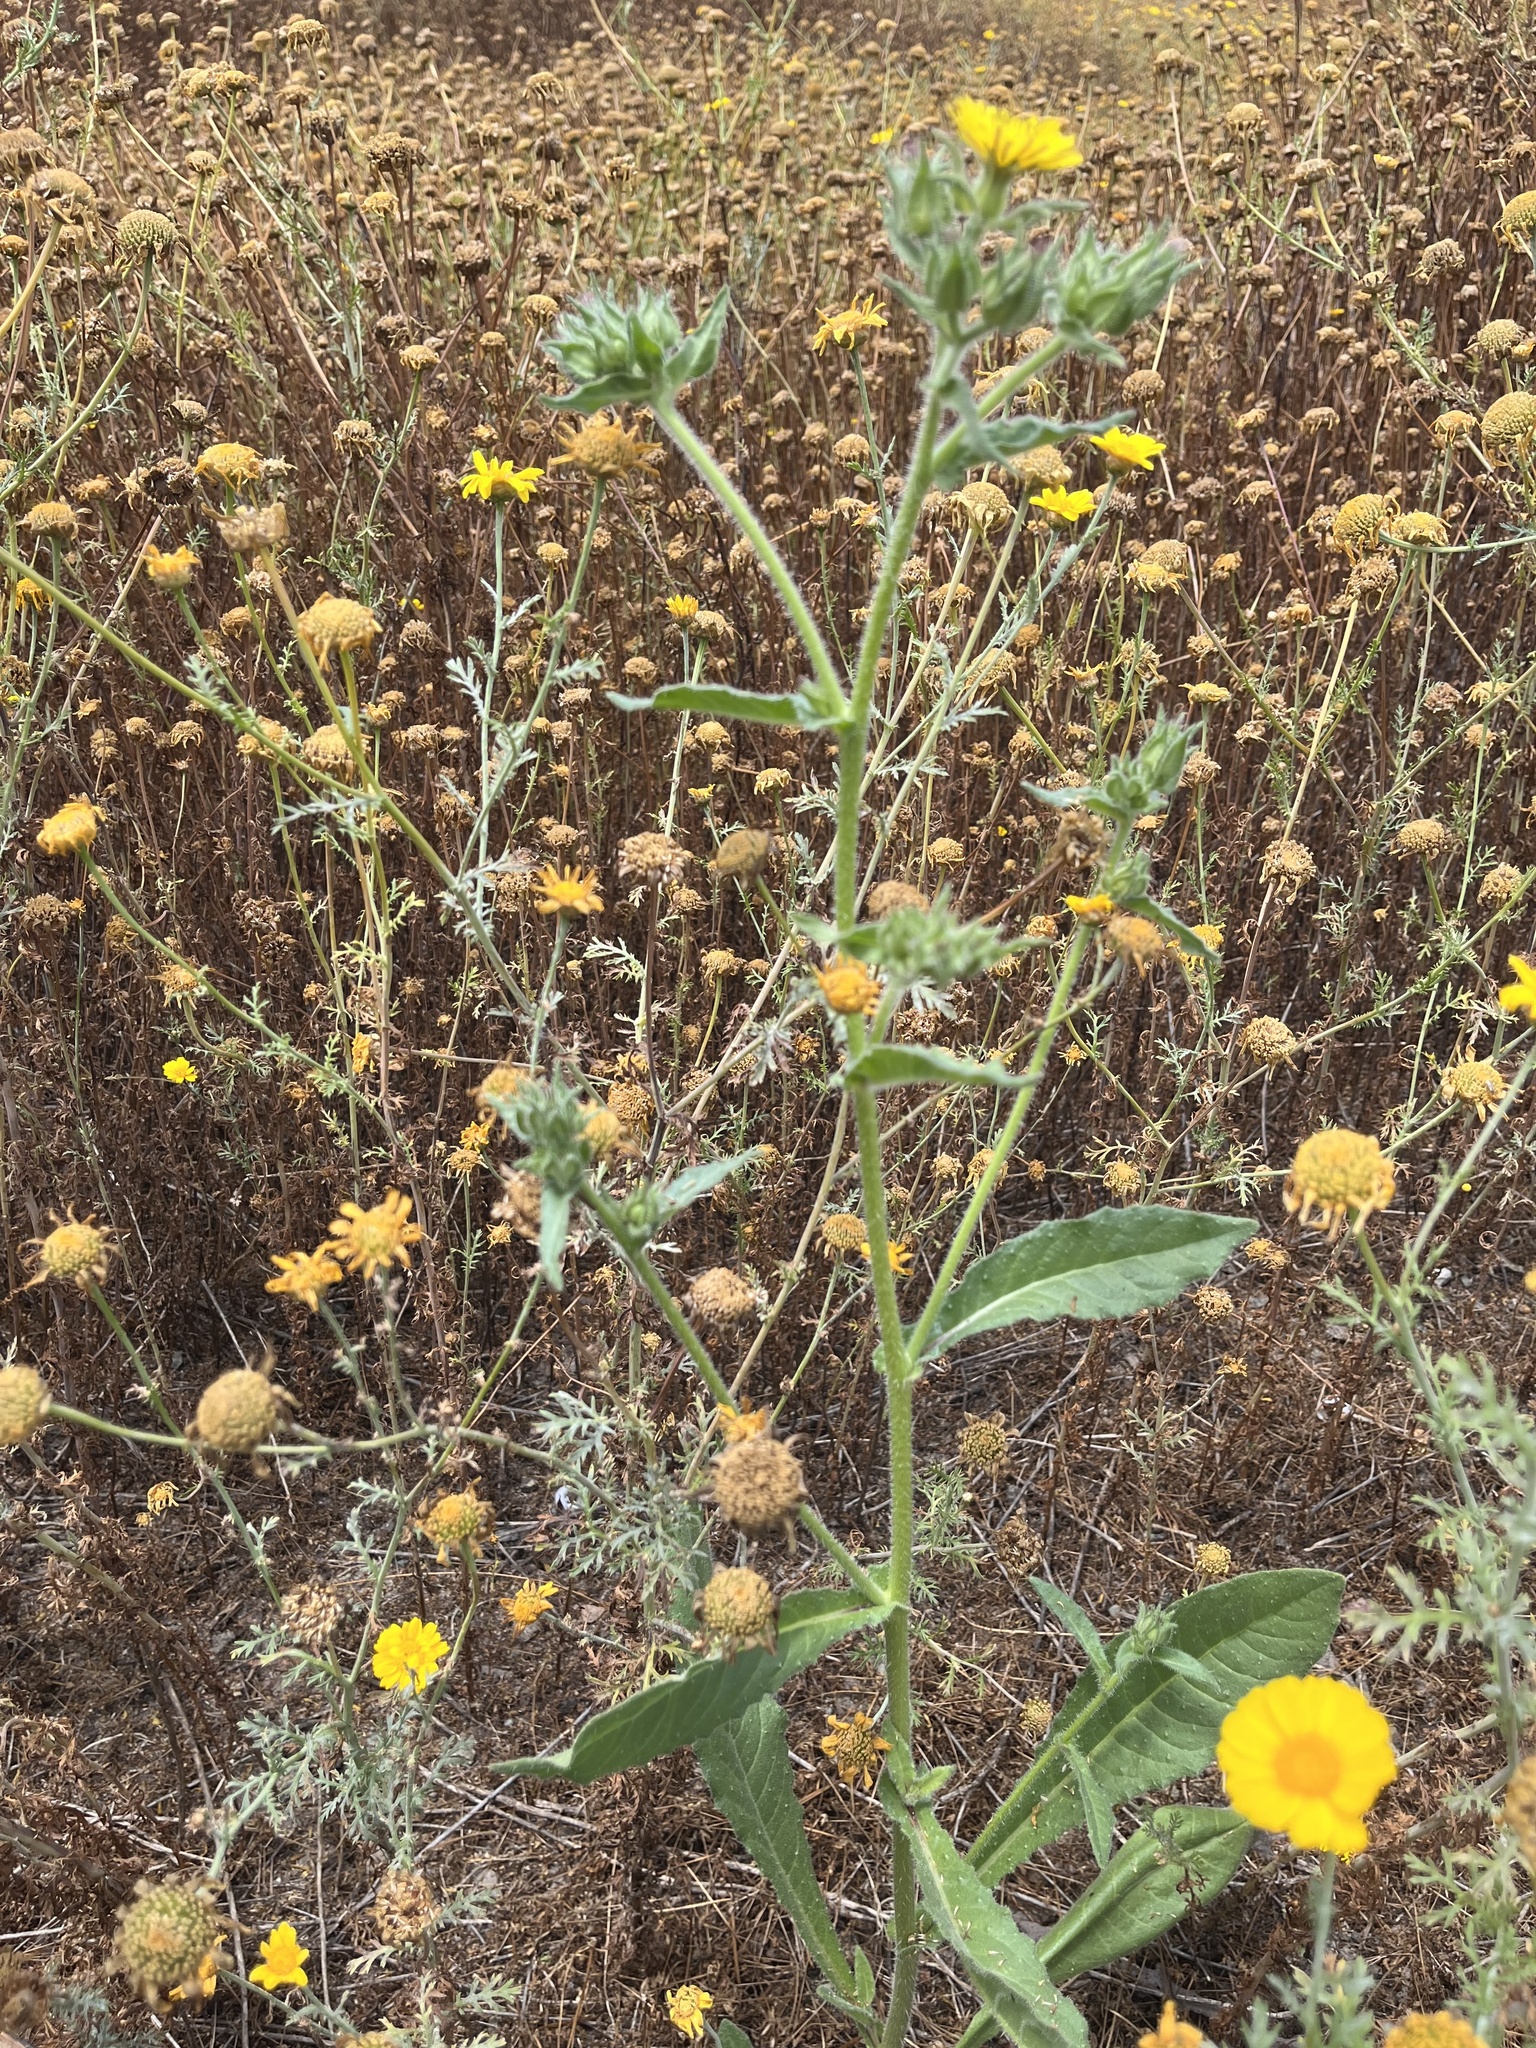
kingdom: Plantae
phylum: Tracheophyta
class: Magnoliopsida
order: Asterales
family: Asteraceae
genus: Helminthotheca
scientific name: Helminthotheca echioides
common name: Ox-tongue
